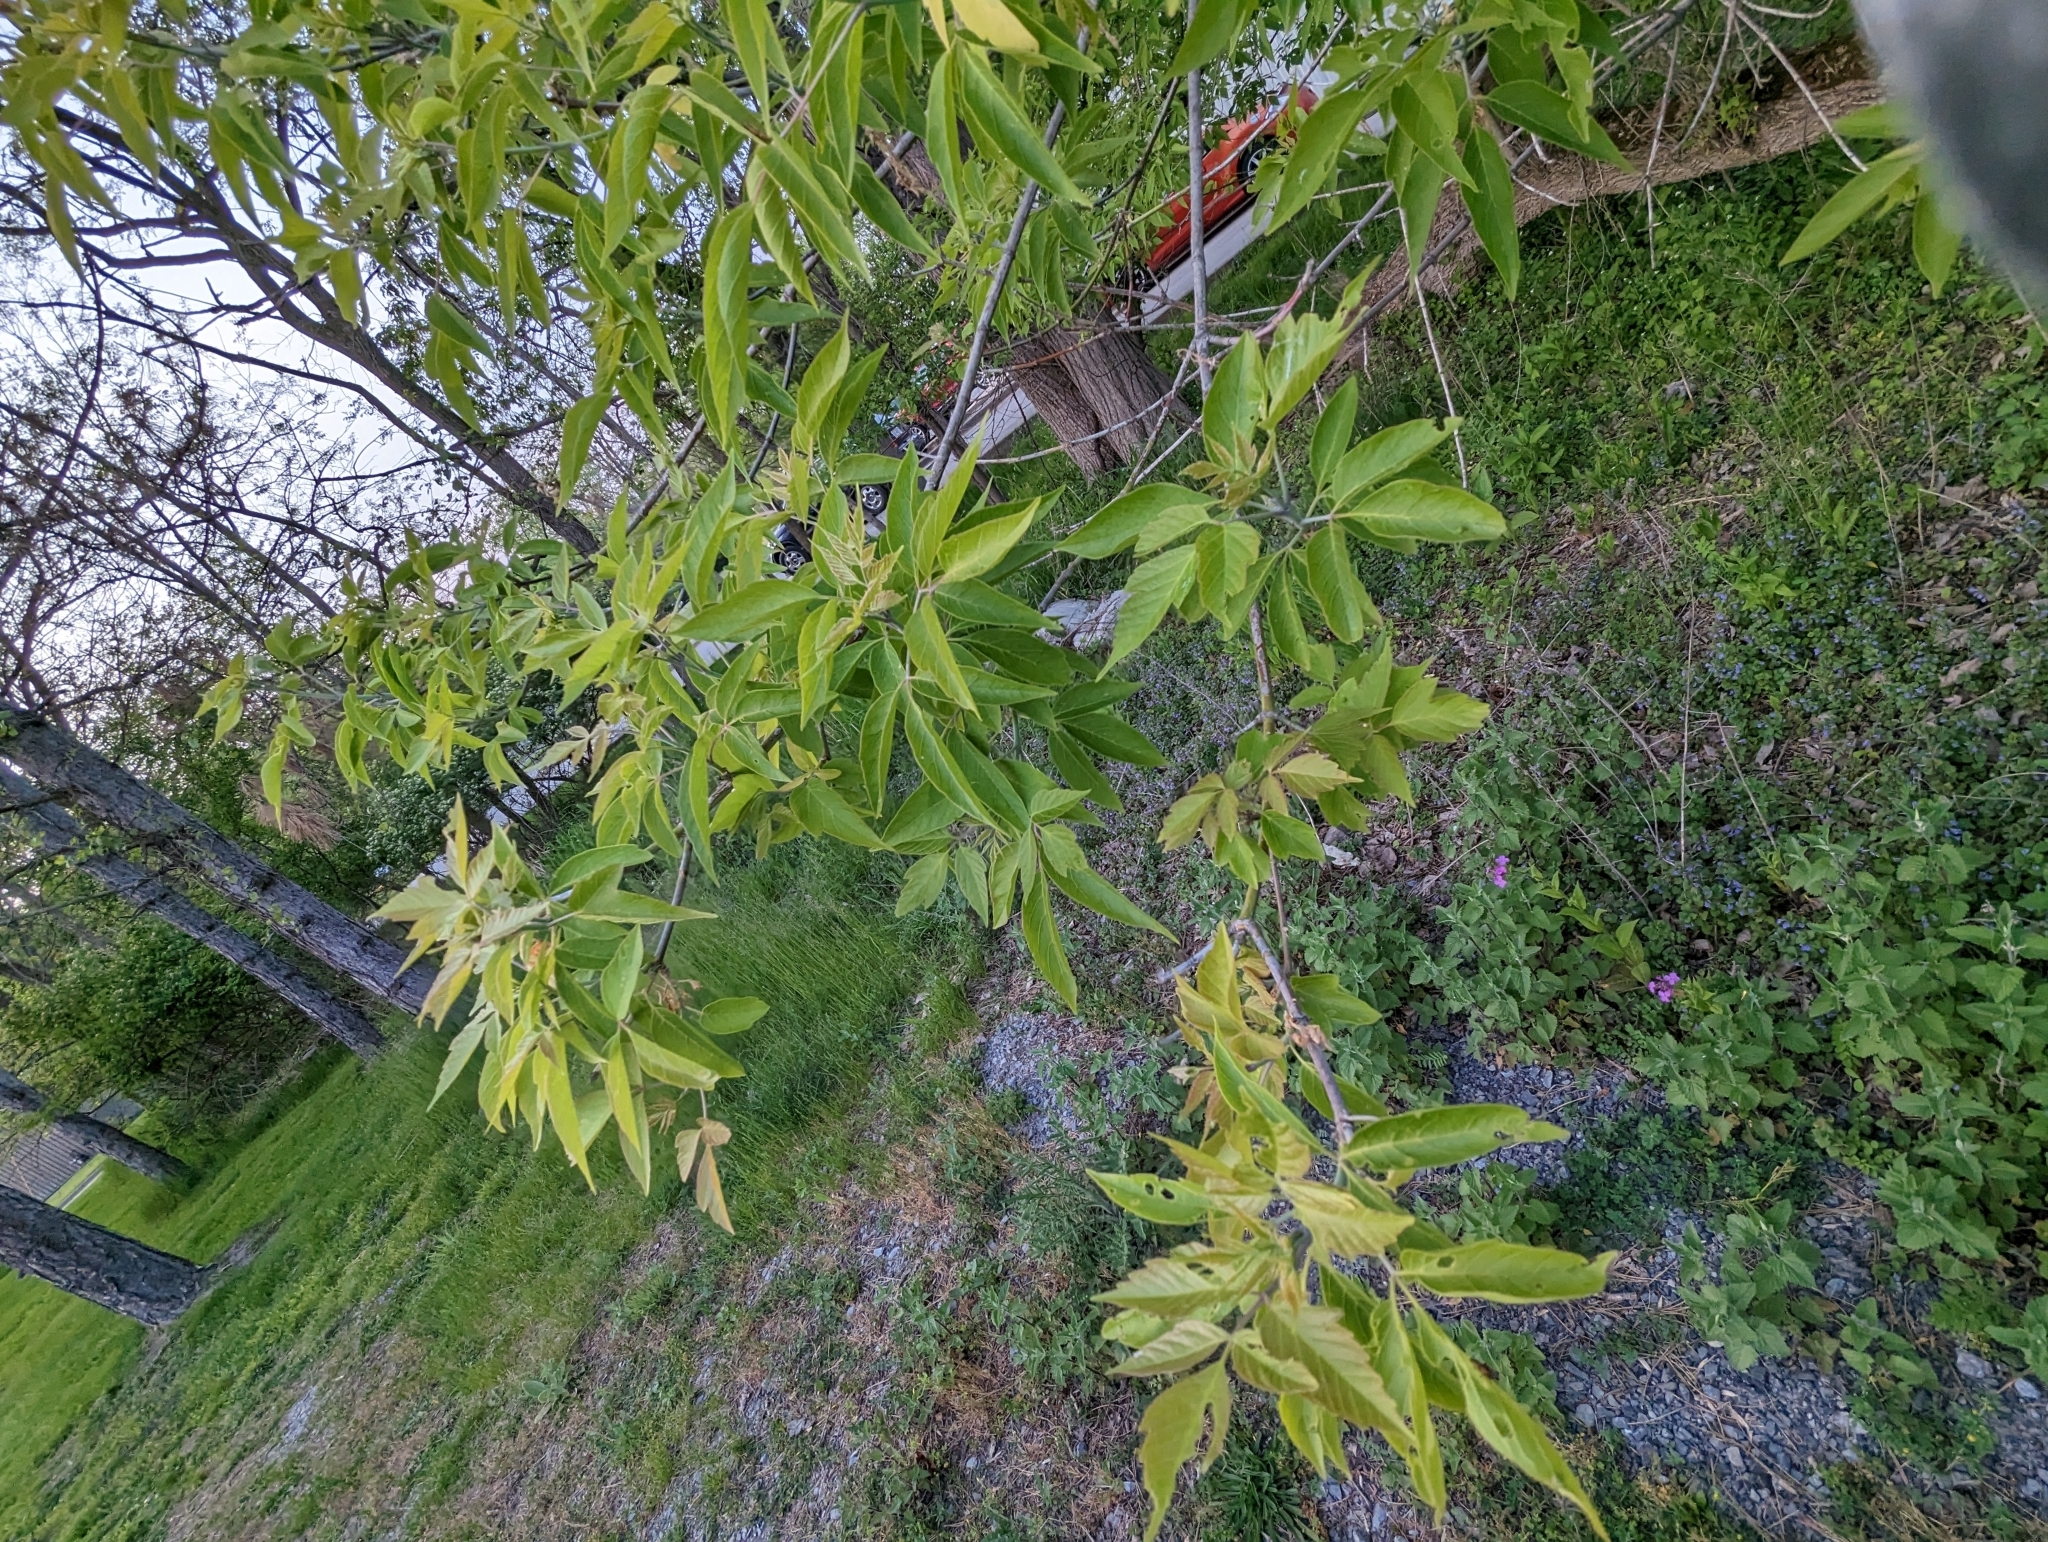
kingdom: Animalia
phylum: Arthropoda
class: Insecta
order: Coleoptera
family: Chrysomelidae
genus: Odontota
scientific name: Odontota dorsalis
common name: Locust leaf-miner beetle
